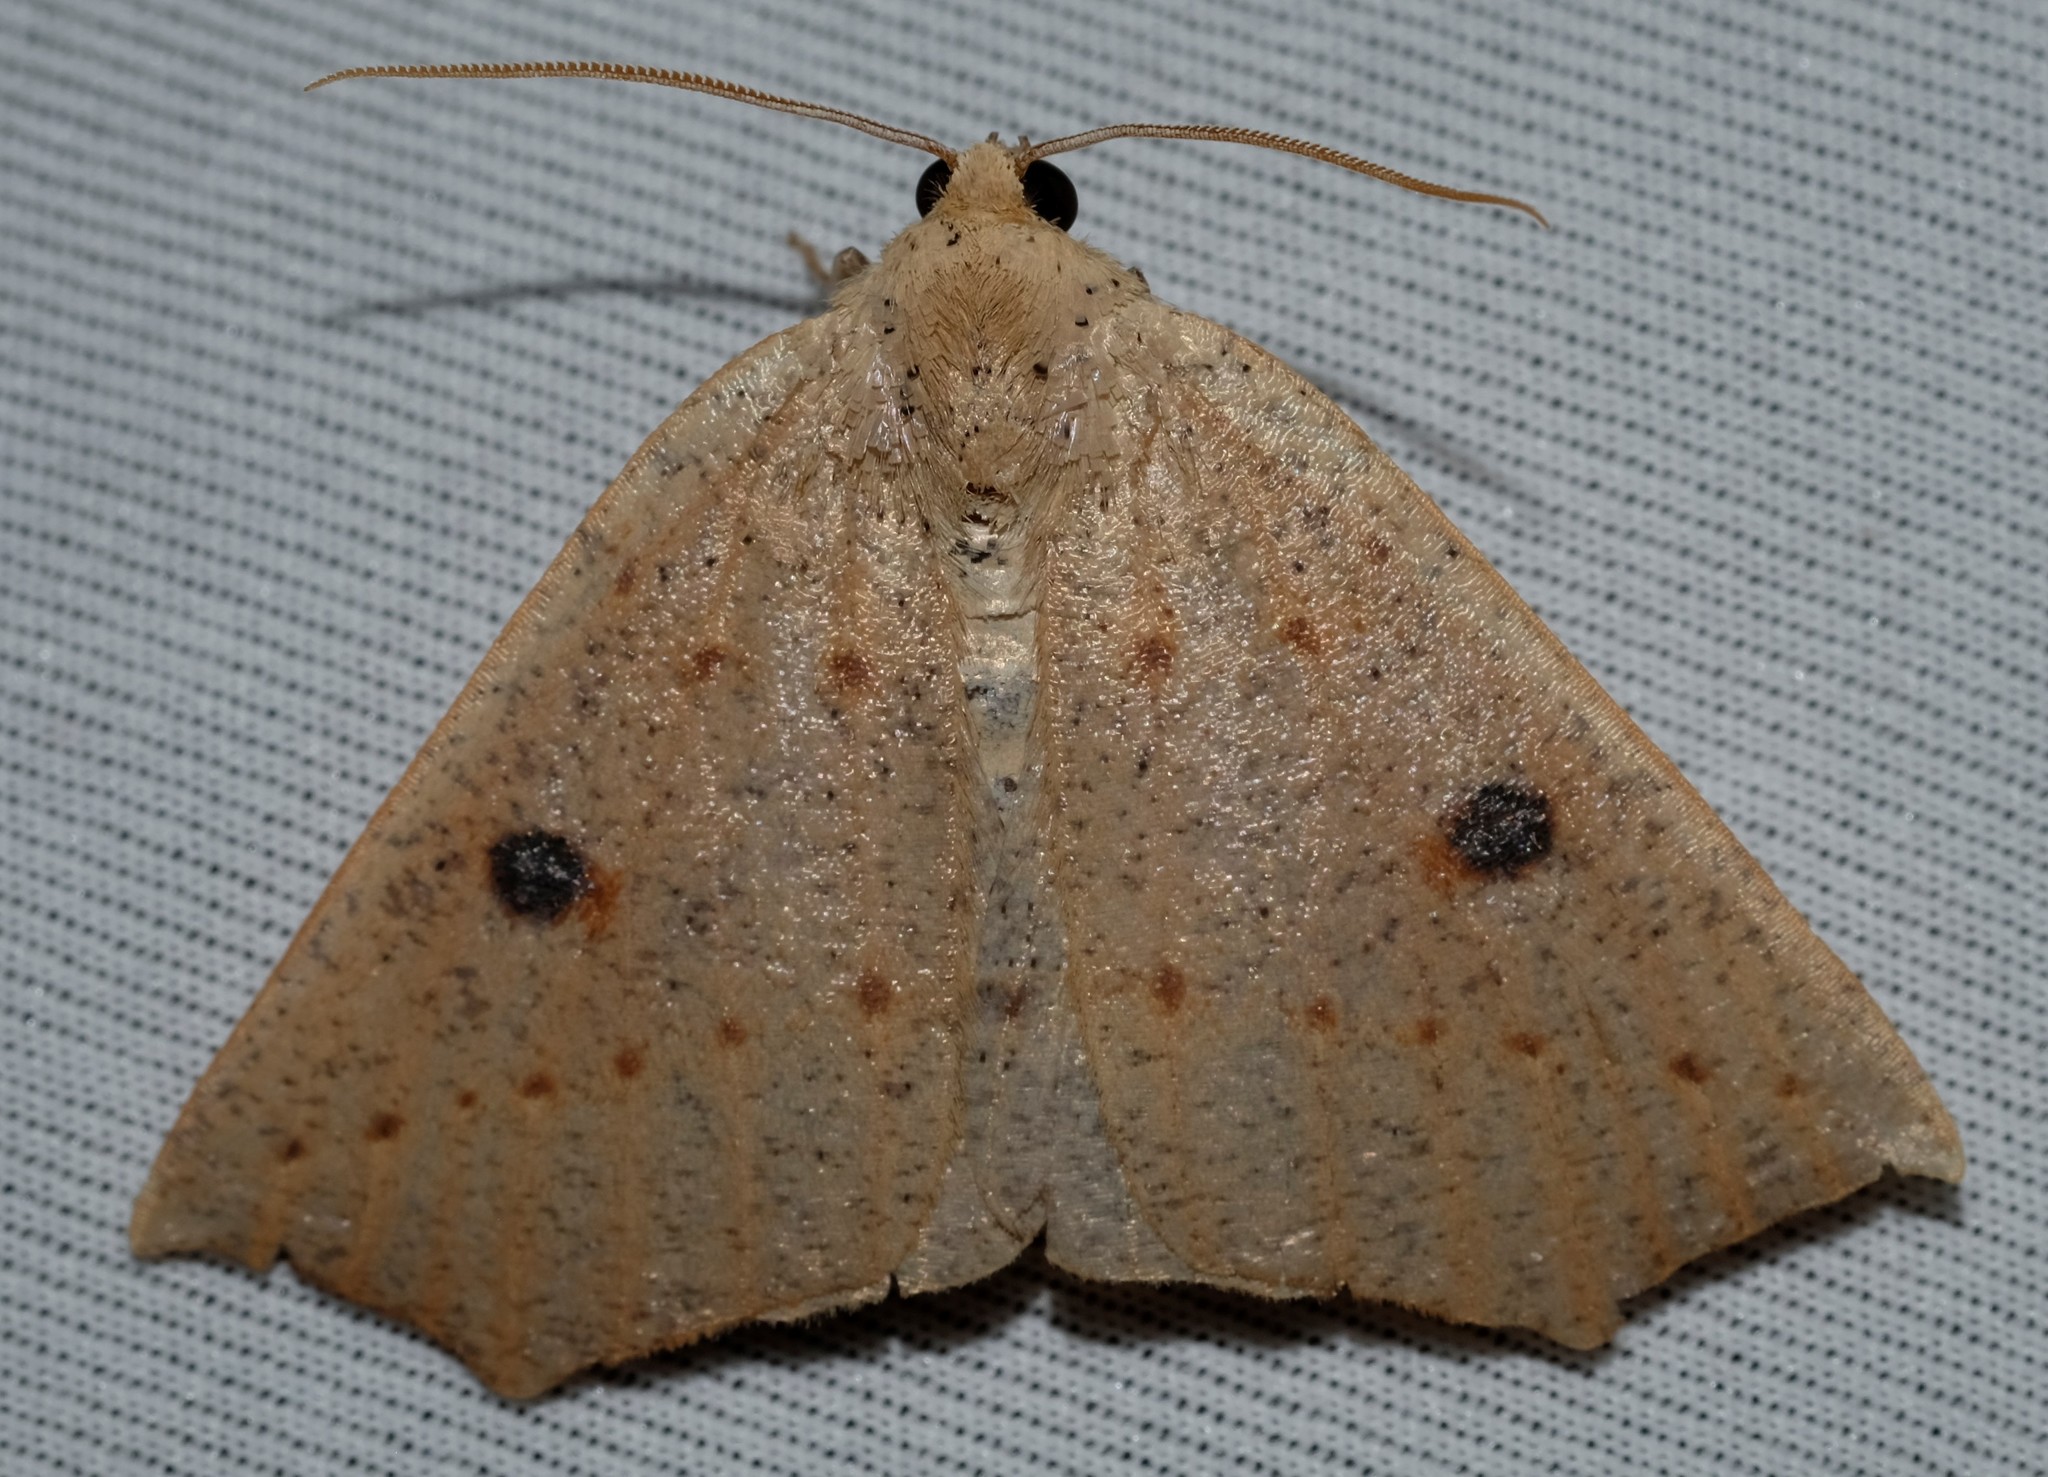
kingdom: Animalia
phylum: Arthropoda
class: Insecta
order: Lepidoptera
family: Geometridae
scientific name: Geometridae
